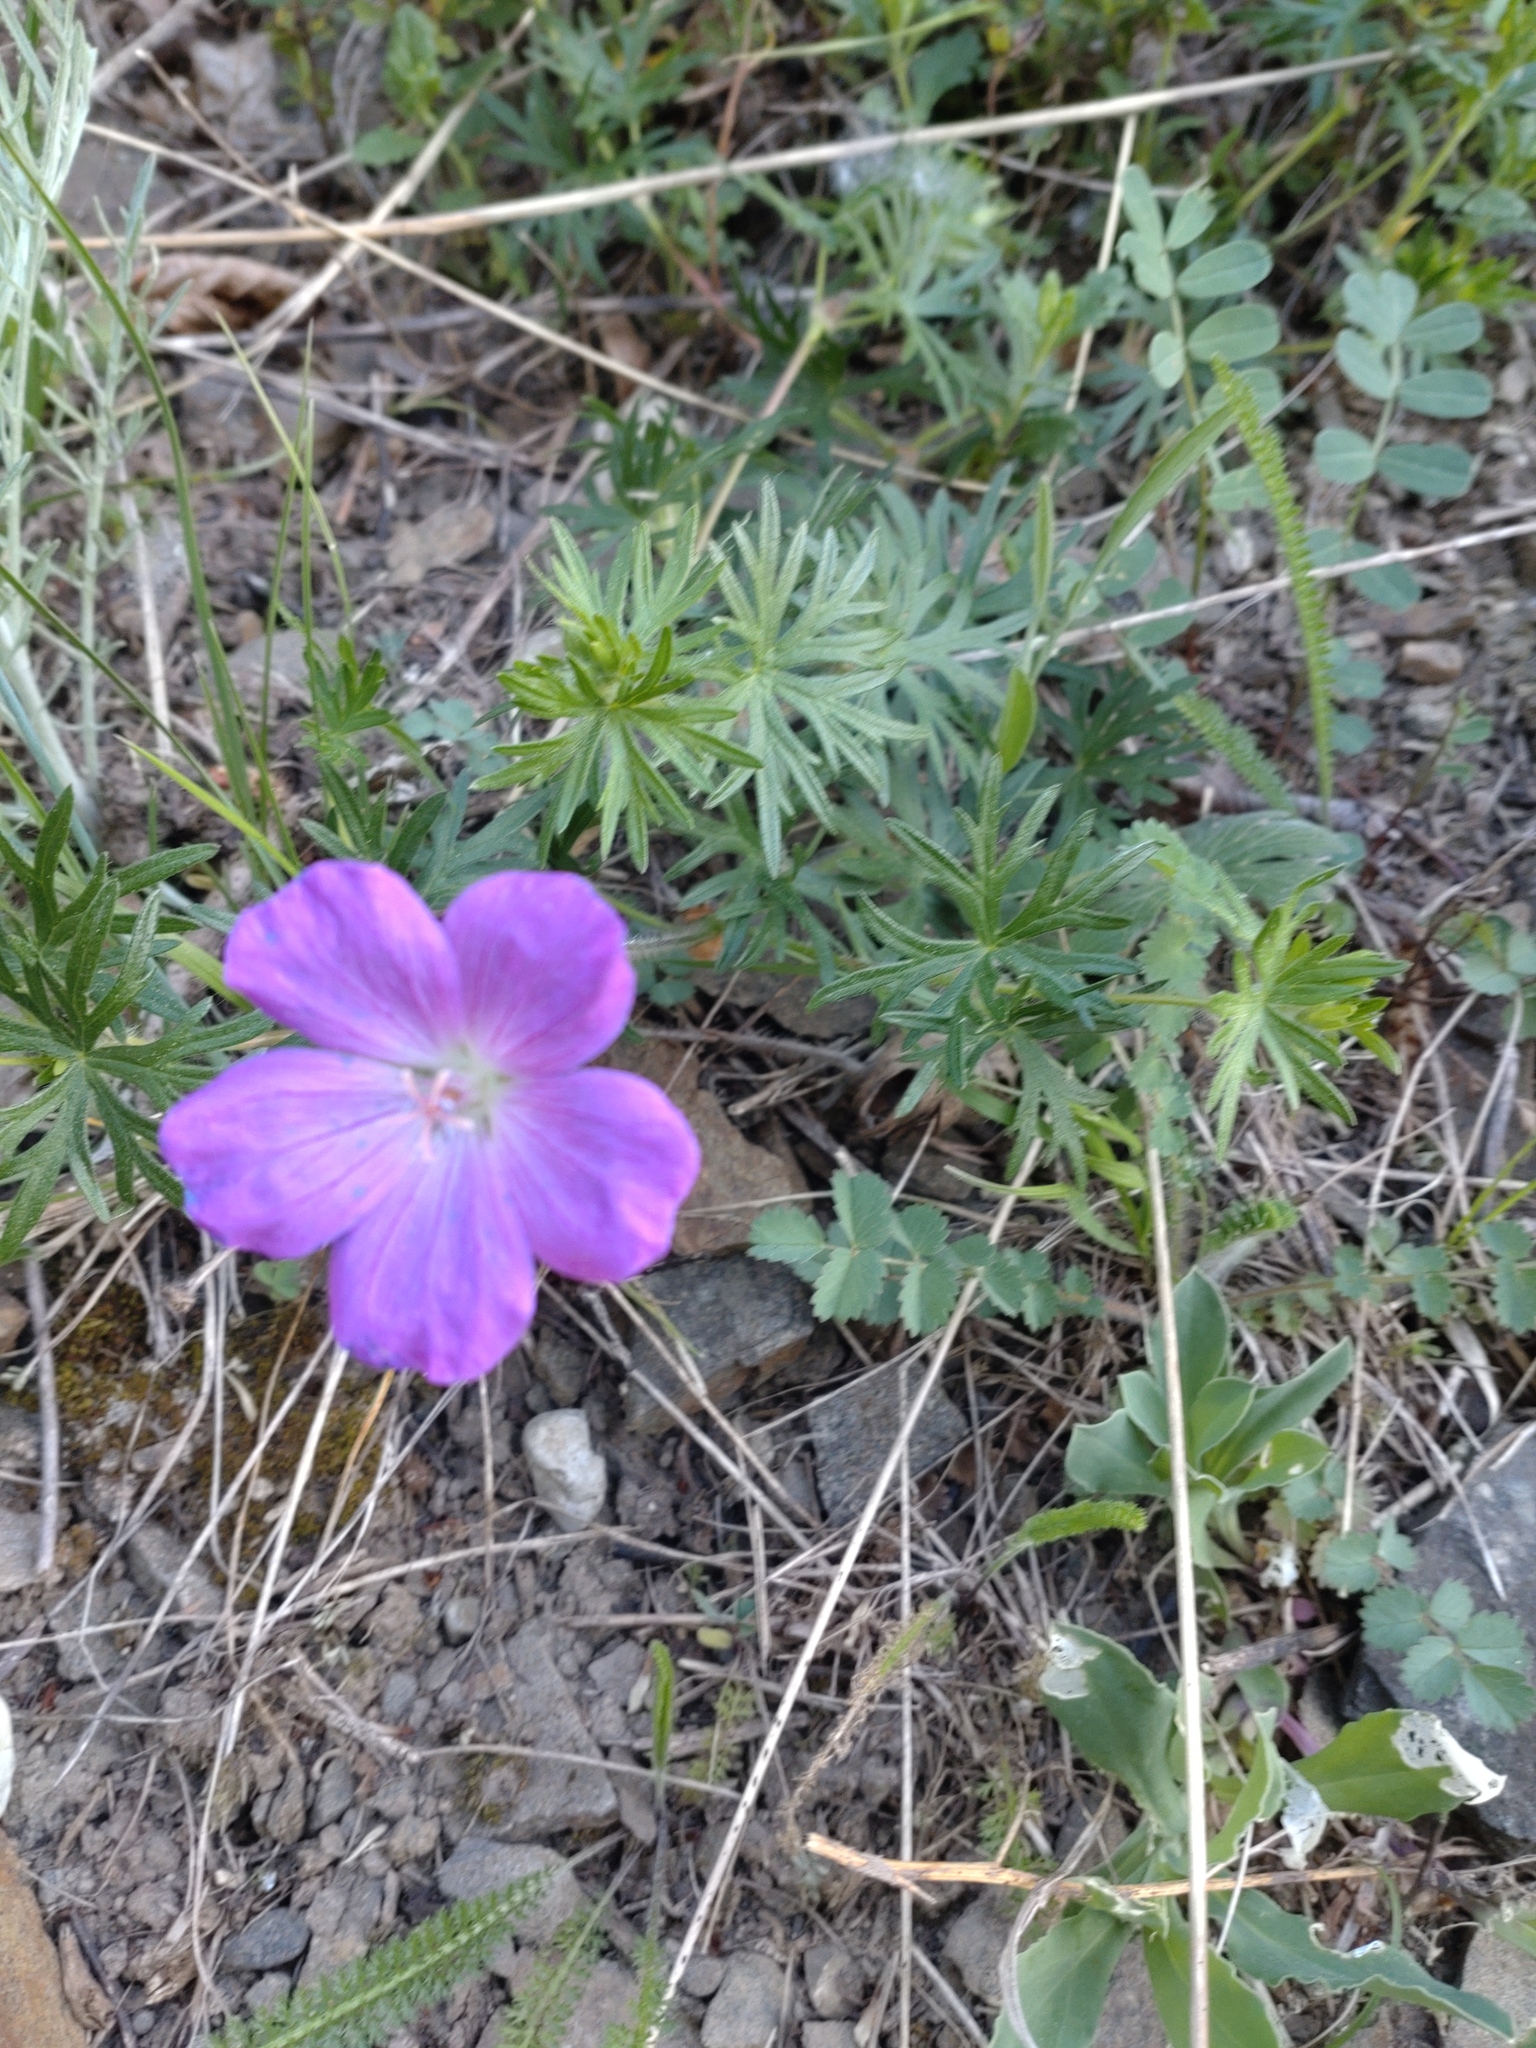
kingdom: Plantae
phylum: Tracheophyta
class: Magnoliopsida
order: Geraniales
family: Geraniaceae
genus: Geranium
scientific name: Geranium sanguineum
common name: Bloody crane's-bill
